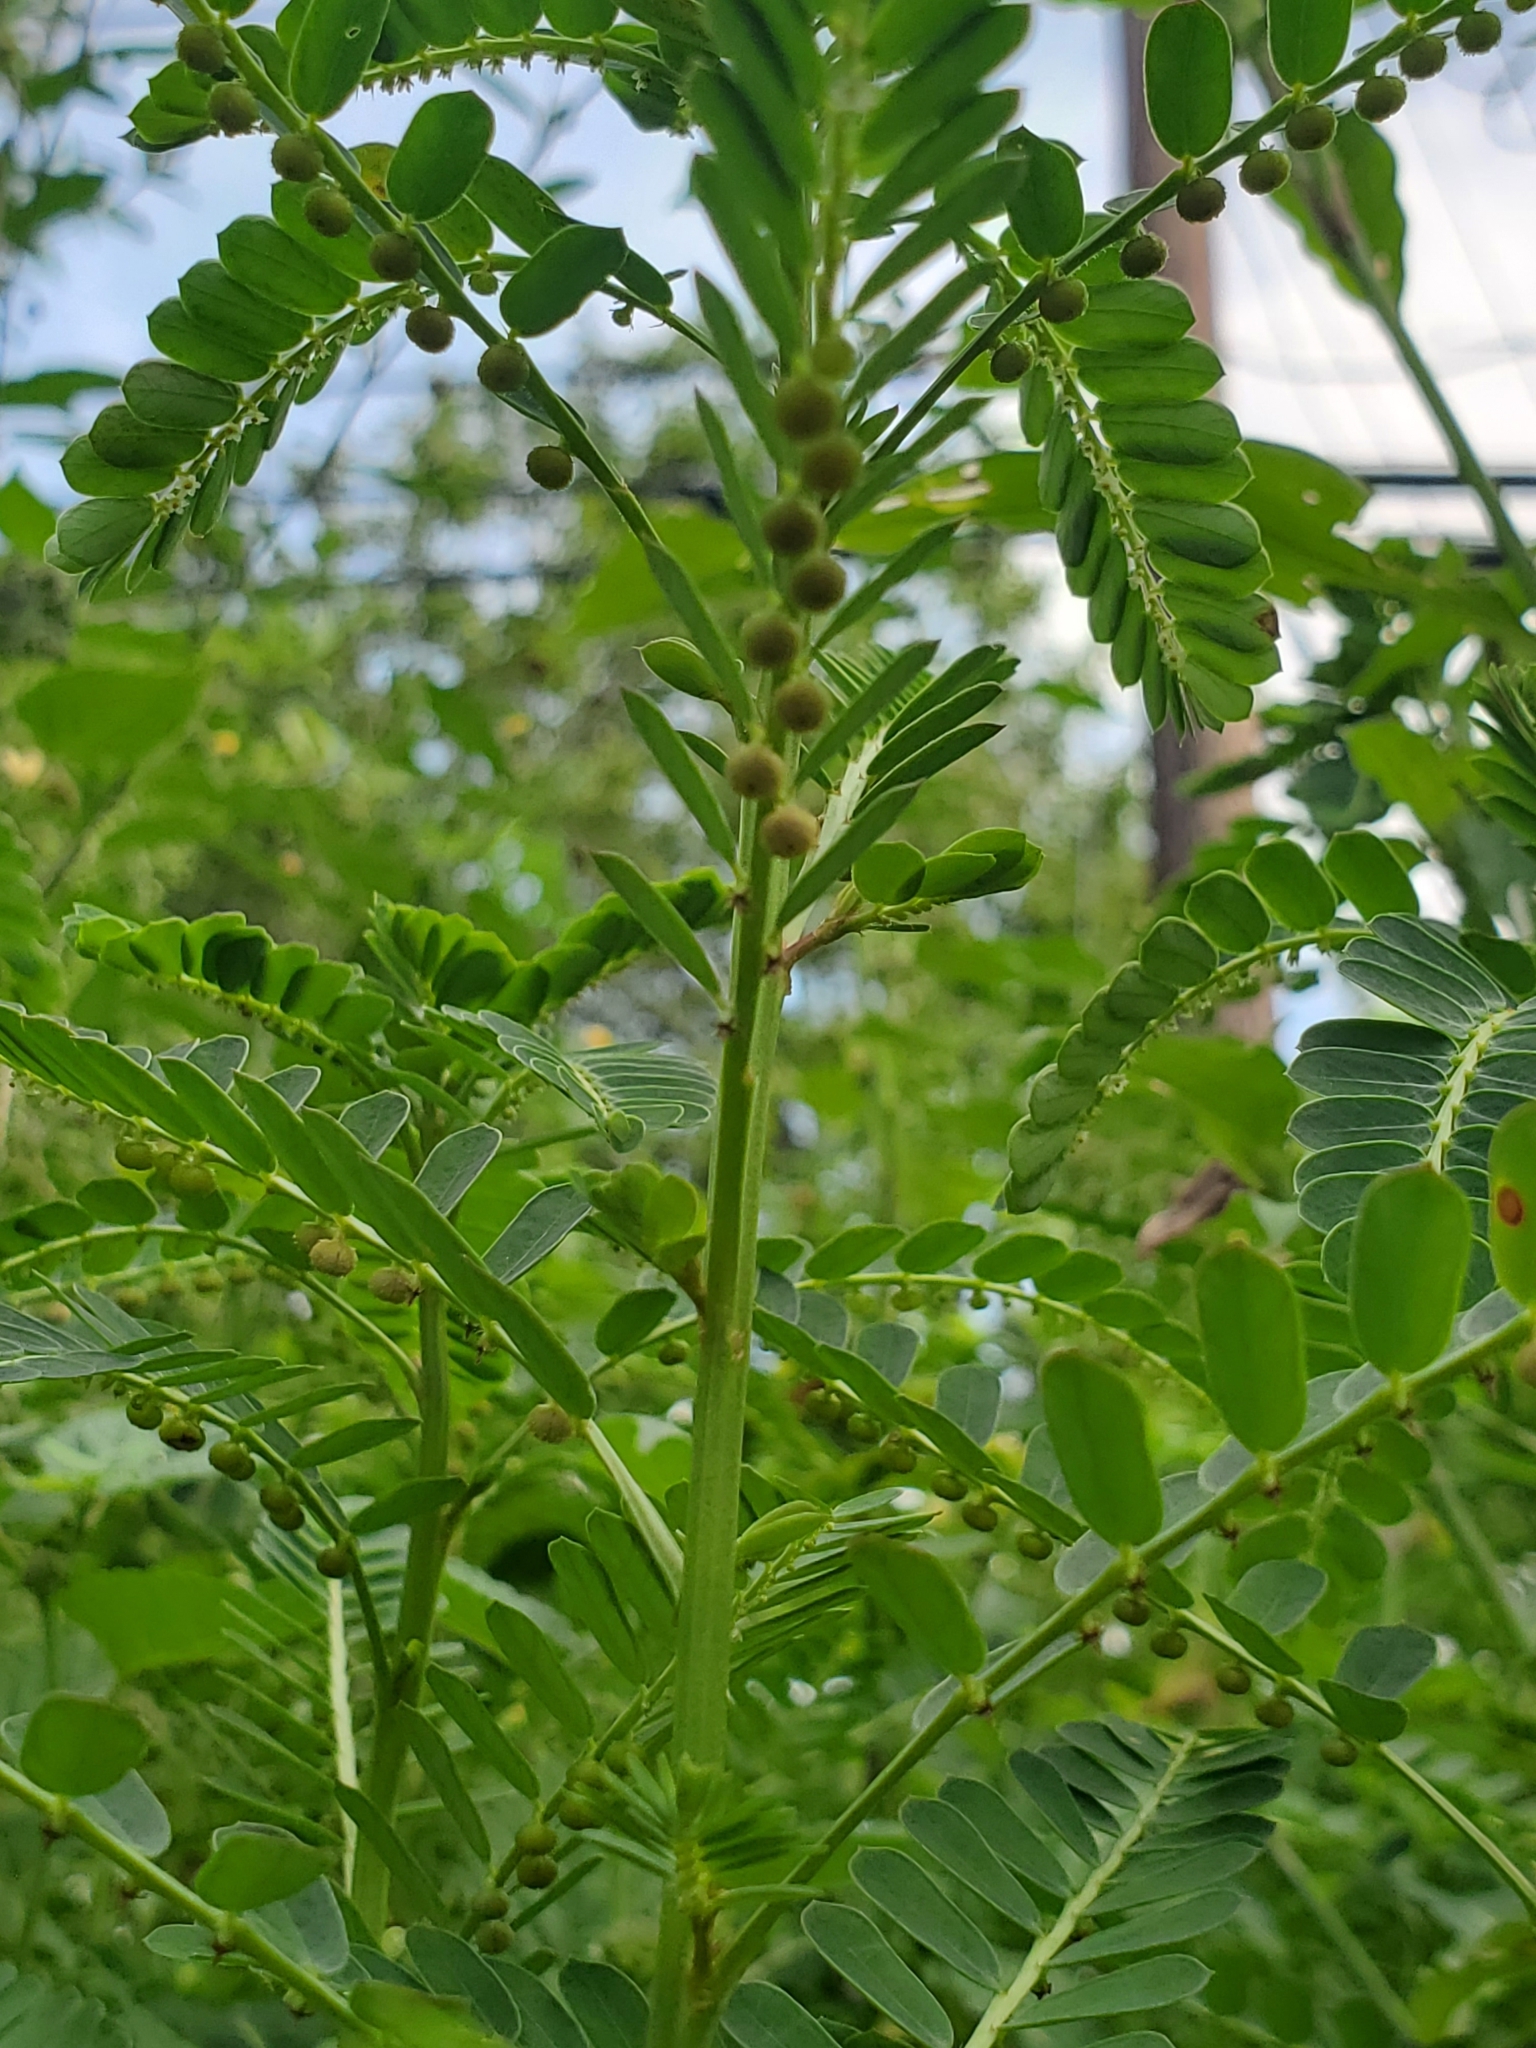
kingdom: Plantae
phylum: Tracheophyta
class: Magnoliopsida
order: Malpighiales
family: Phyllanthaceae
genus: Phyllanthus
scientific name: Phyllanthus urinaria
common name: Chamber bitter
